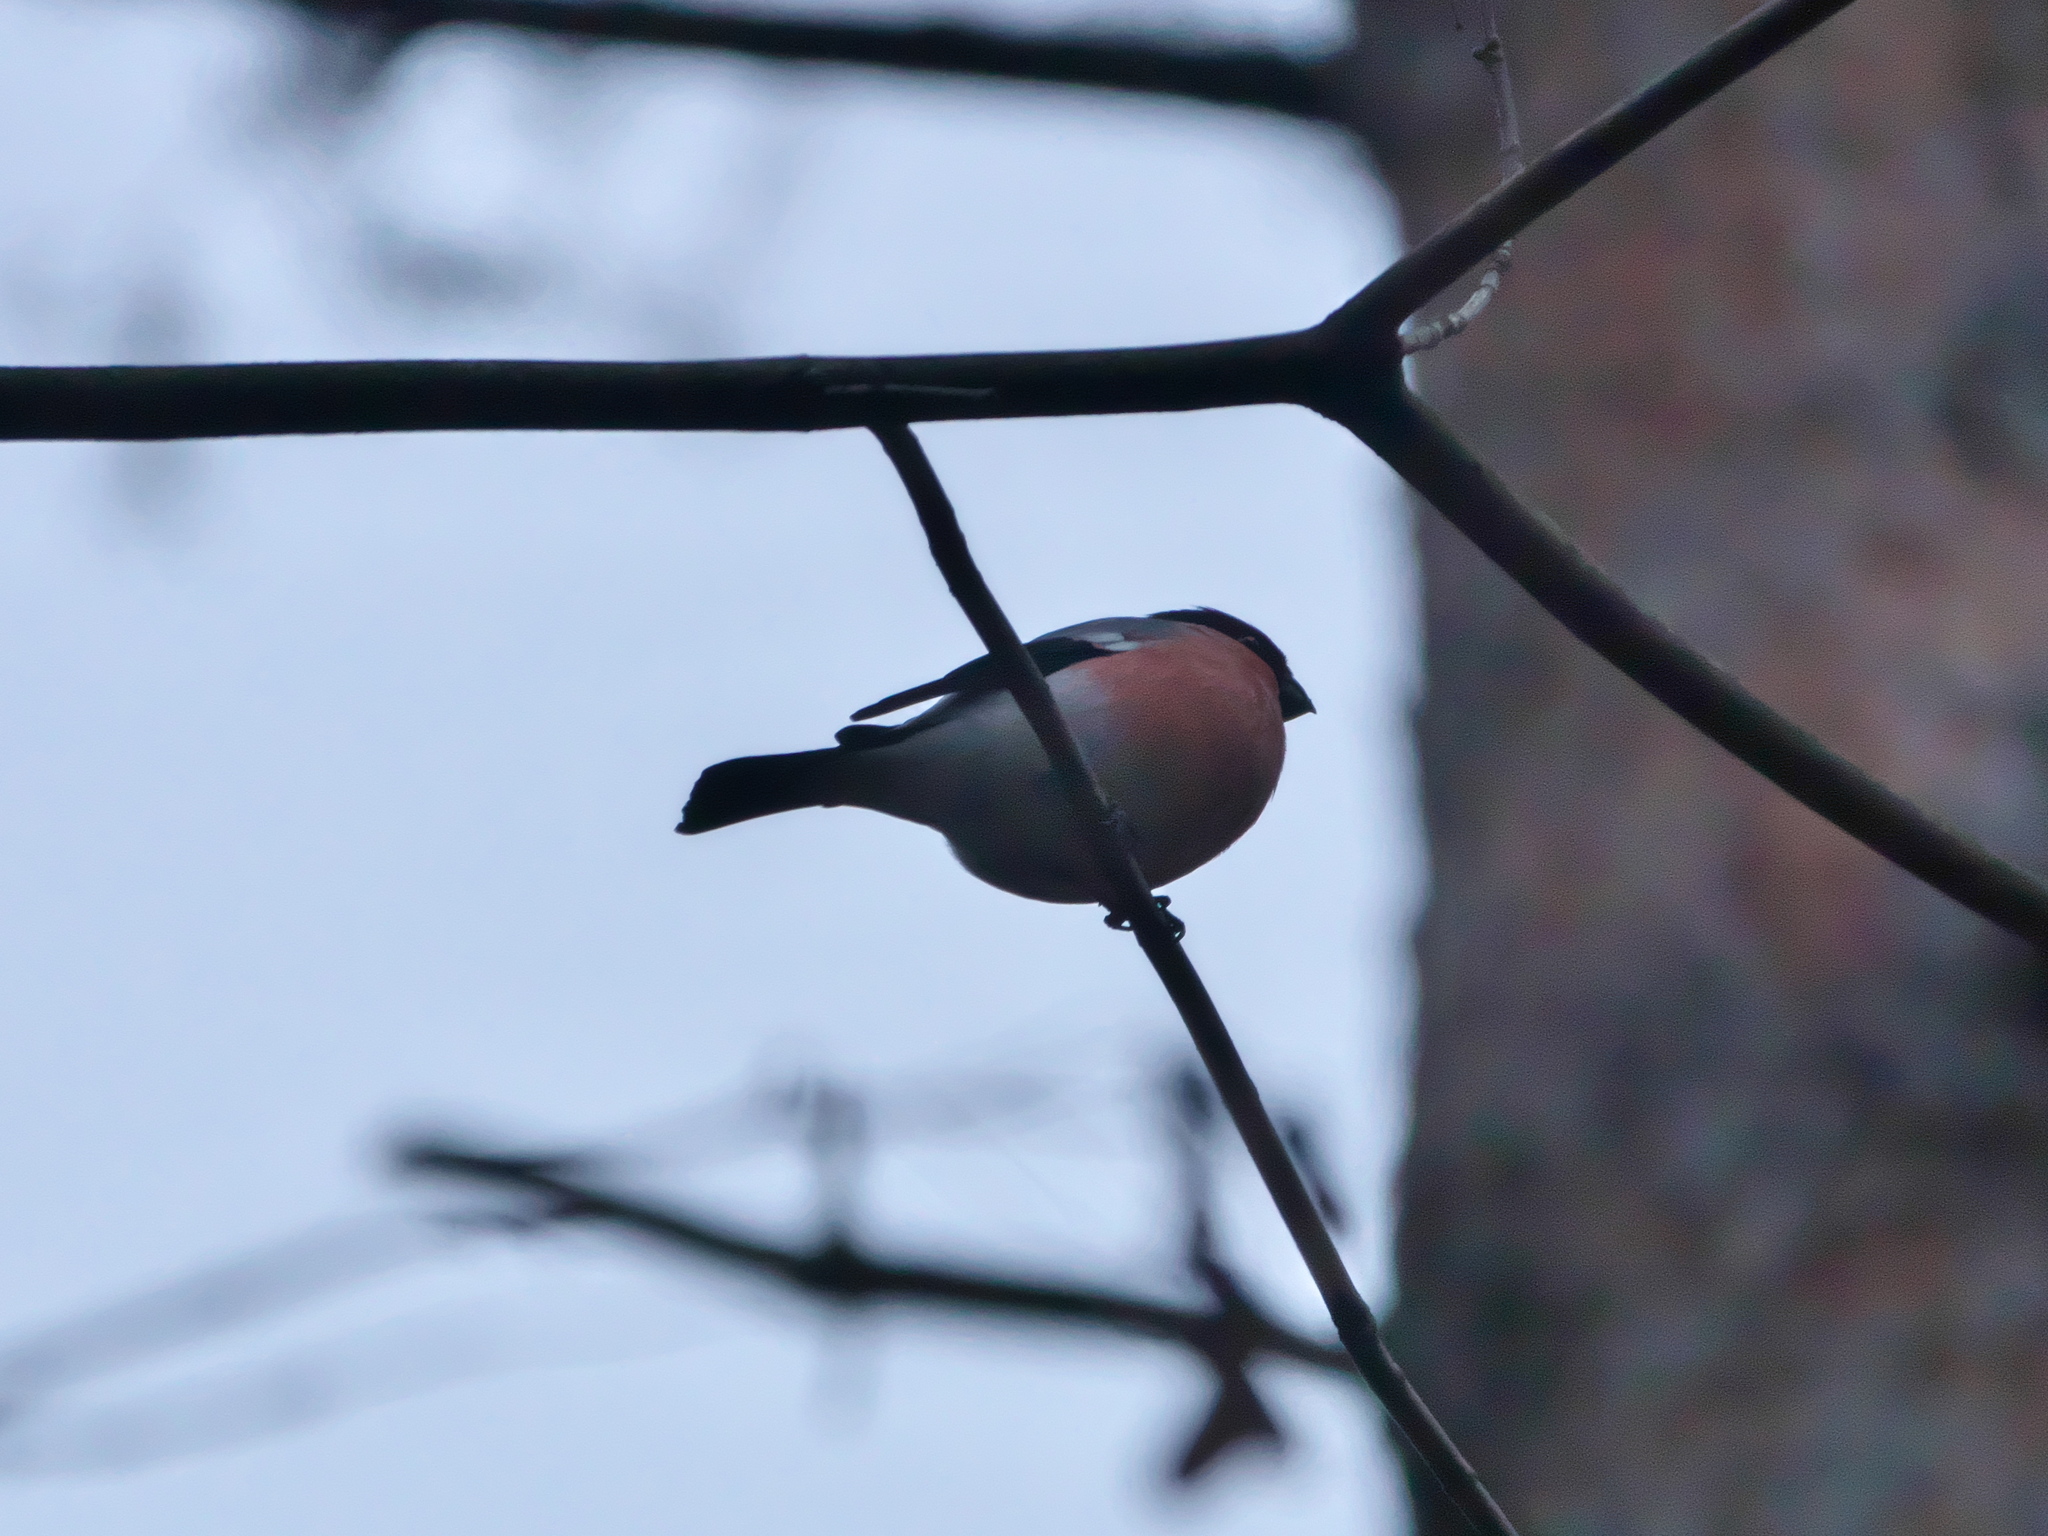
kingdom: Animalia
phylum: Chordata
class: Aves
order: Passeriformes
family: Fringillidae
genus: Pyrrhula
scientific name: Pyrrhula pyrrhula
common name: Eurasian bullfinch
